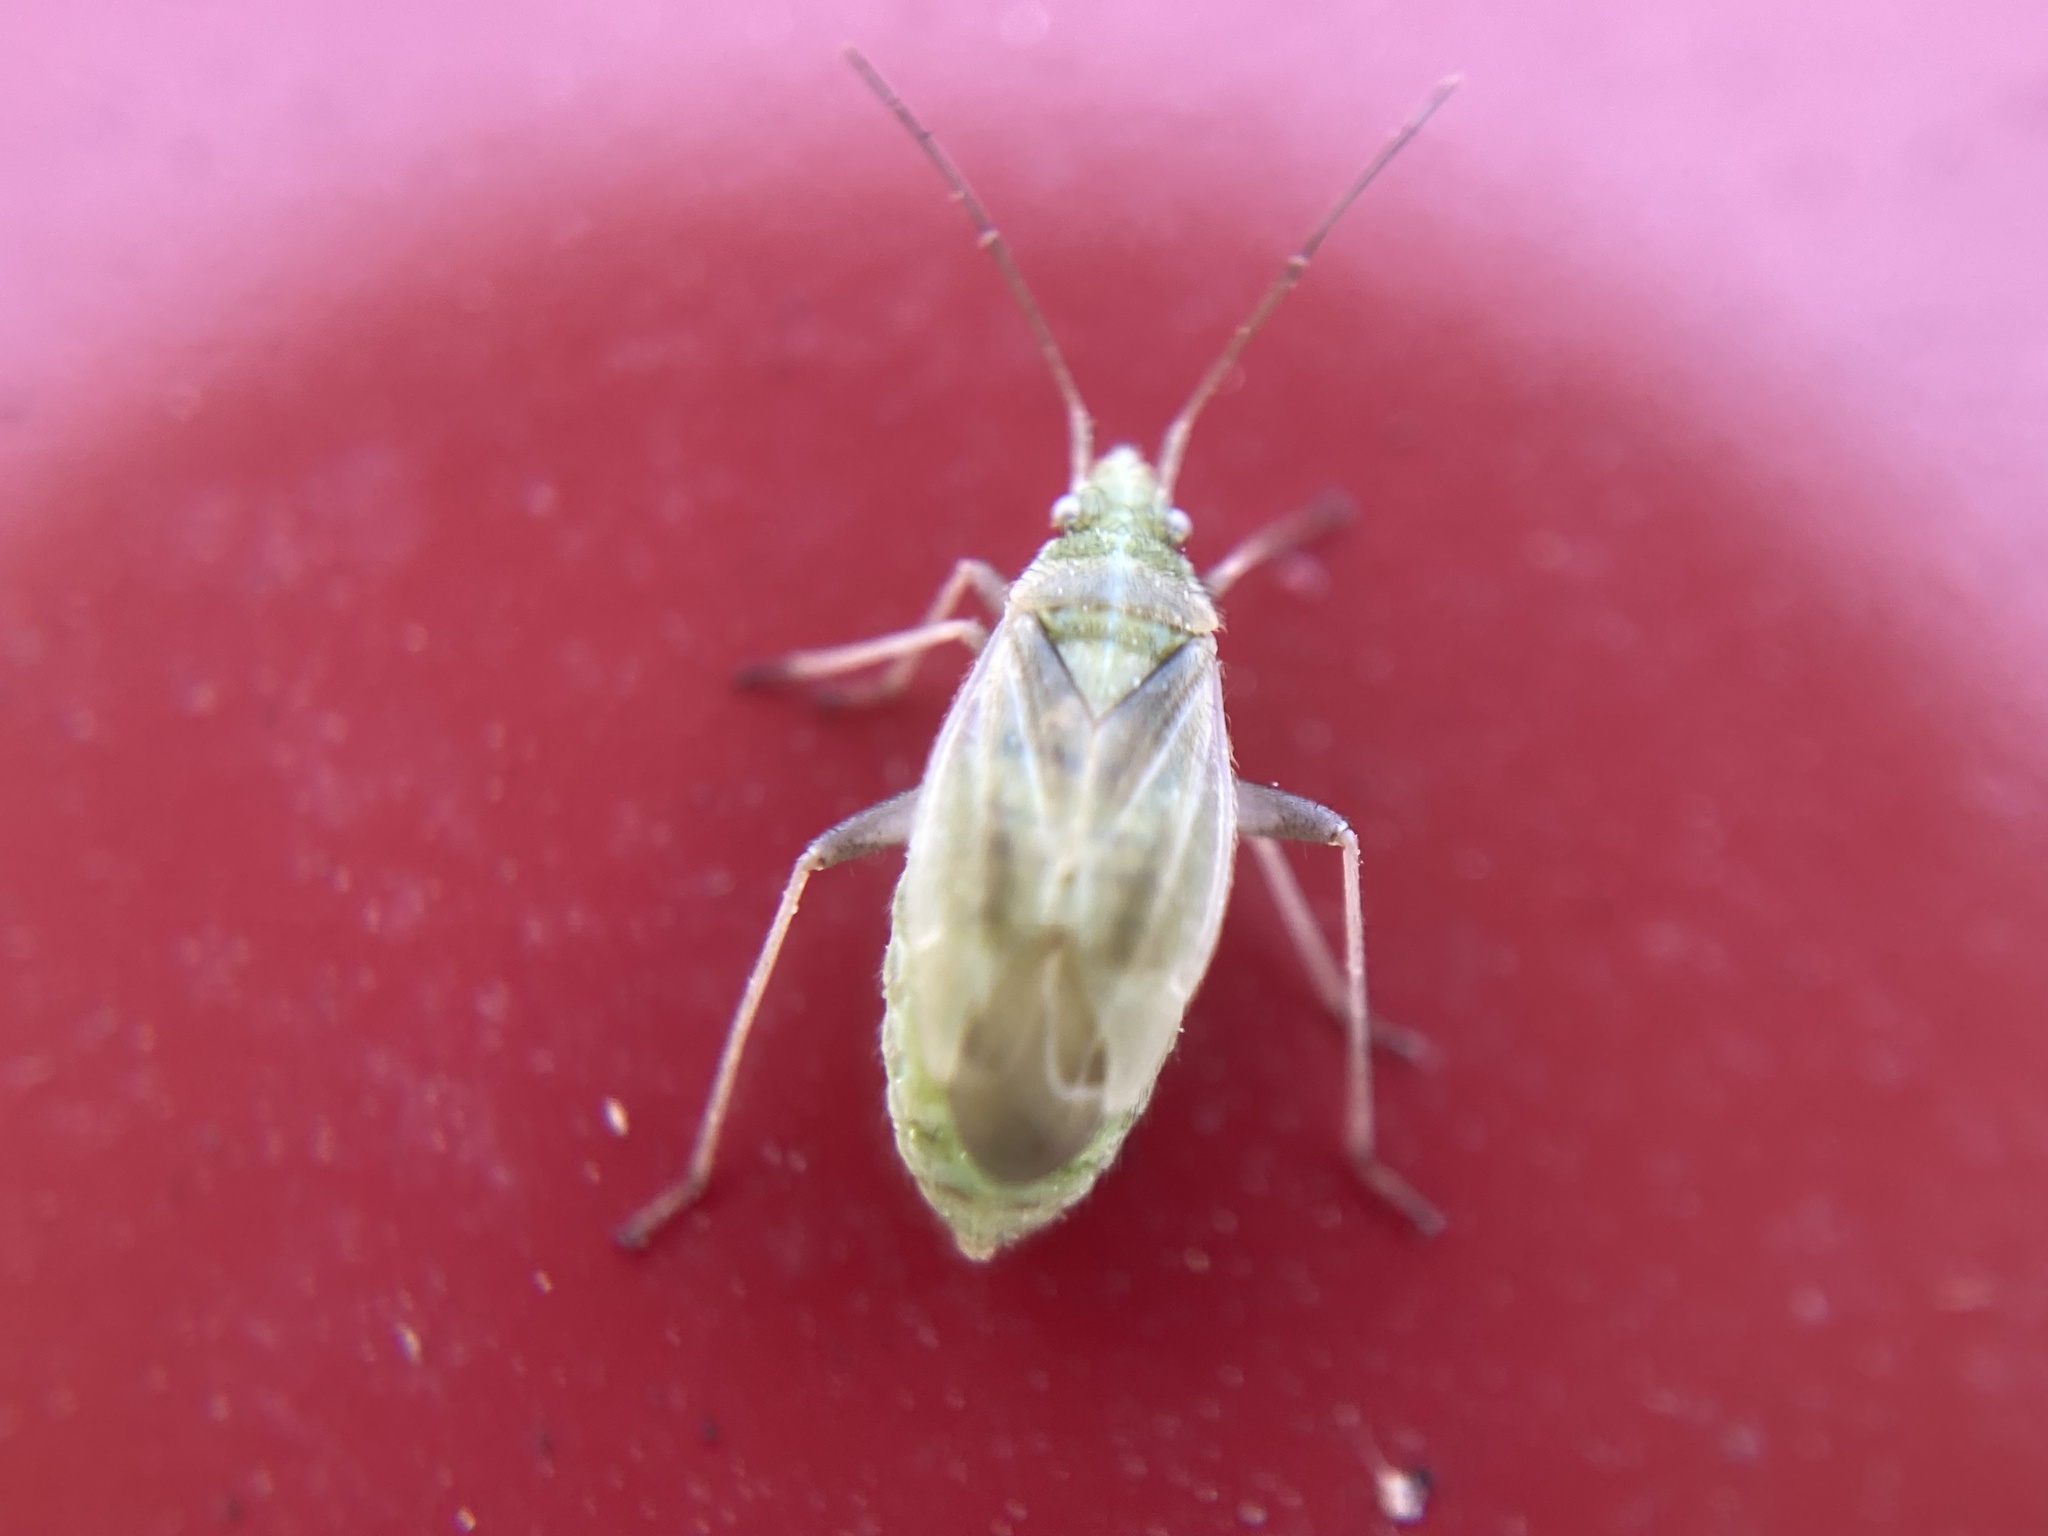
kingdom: Animalia
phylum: Arthropoda
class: Insecta
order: Hemiptera
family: Miridae
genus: Amblytylus
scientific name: Amblytylus nasutus
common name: Plant bug
